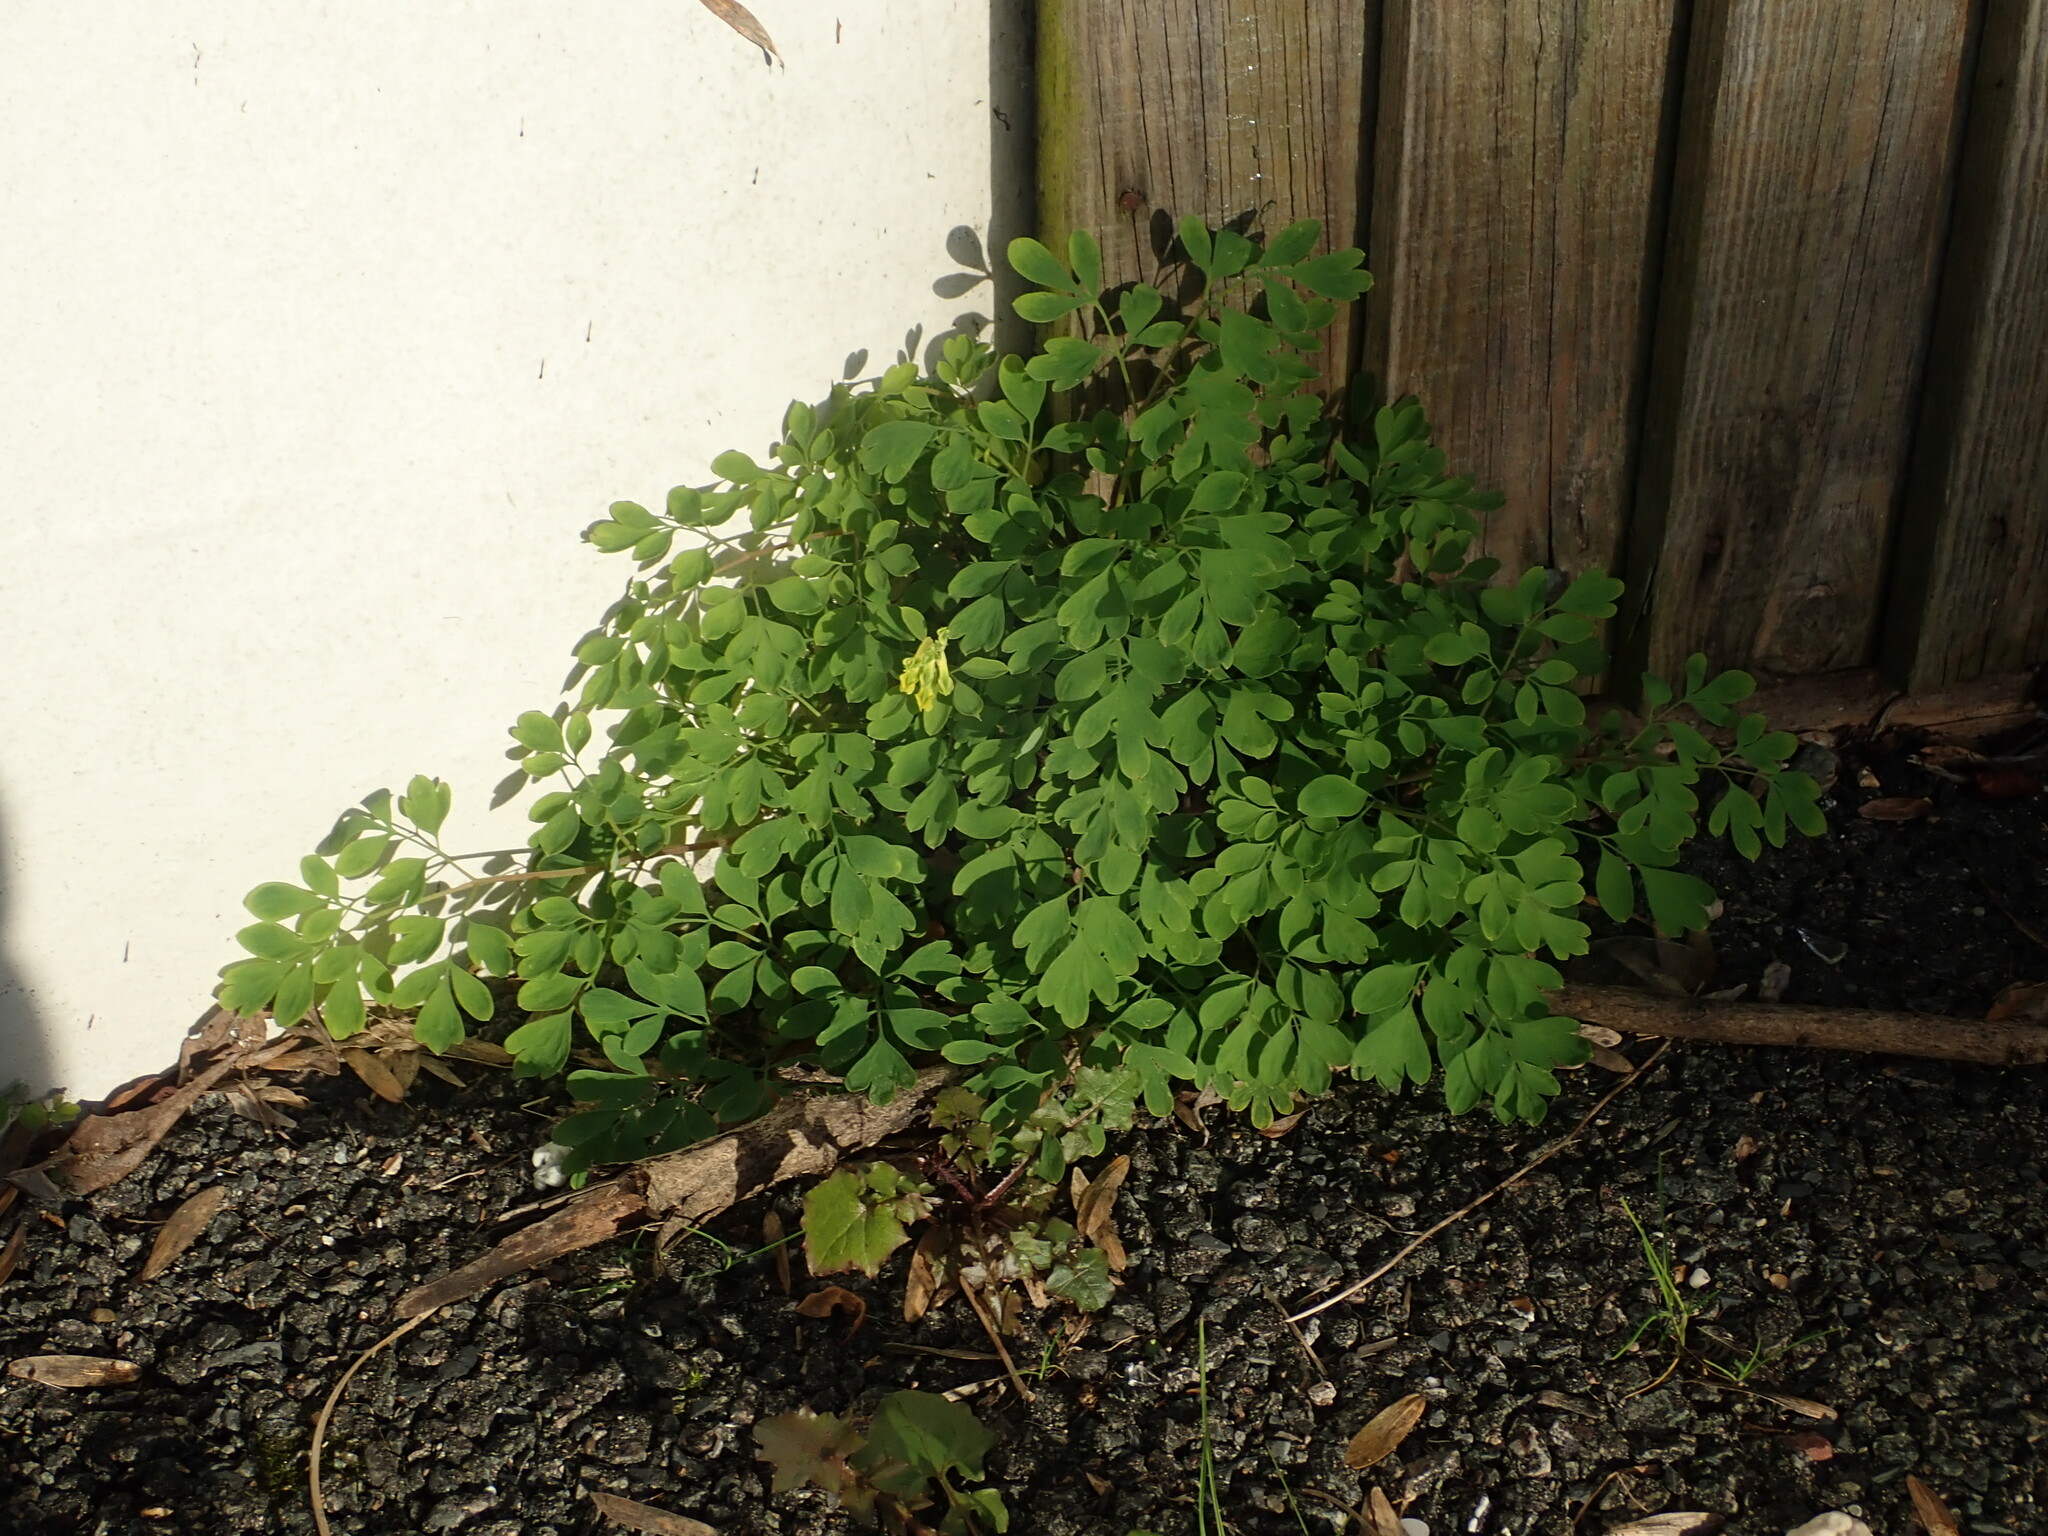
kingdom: Plantae
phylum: Tracheophyta
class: Magnoliopsida
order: Ranunculales
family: Papaveraceae
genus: Pseudofumaria
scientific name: Pseudofumaria lutea
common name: Yellow corydalis
